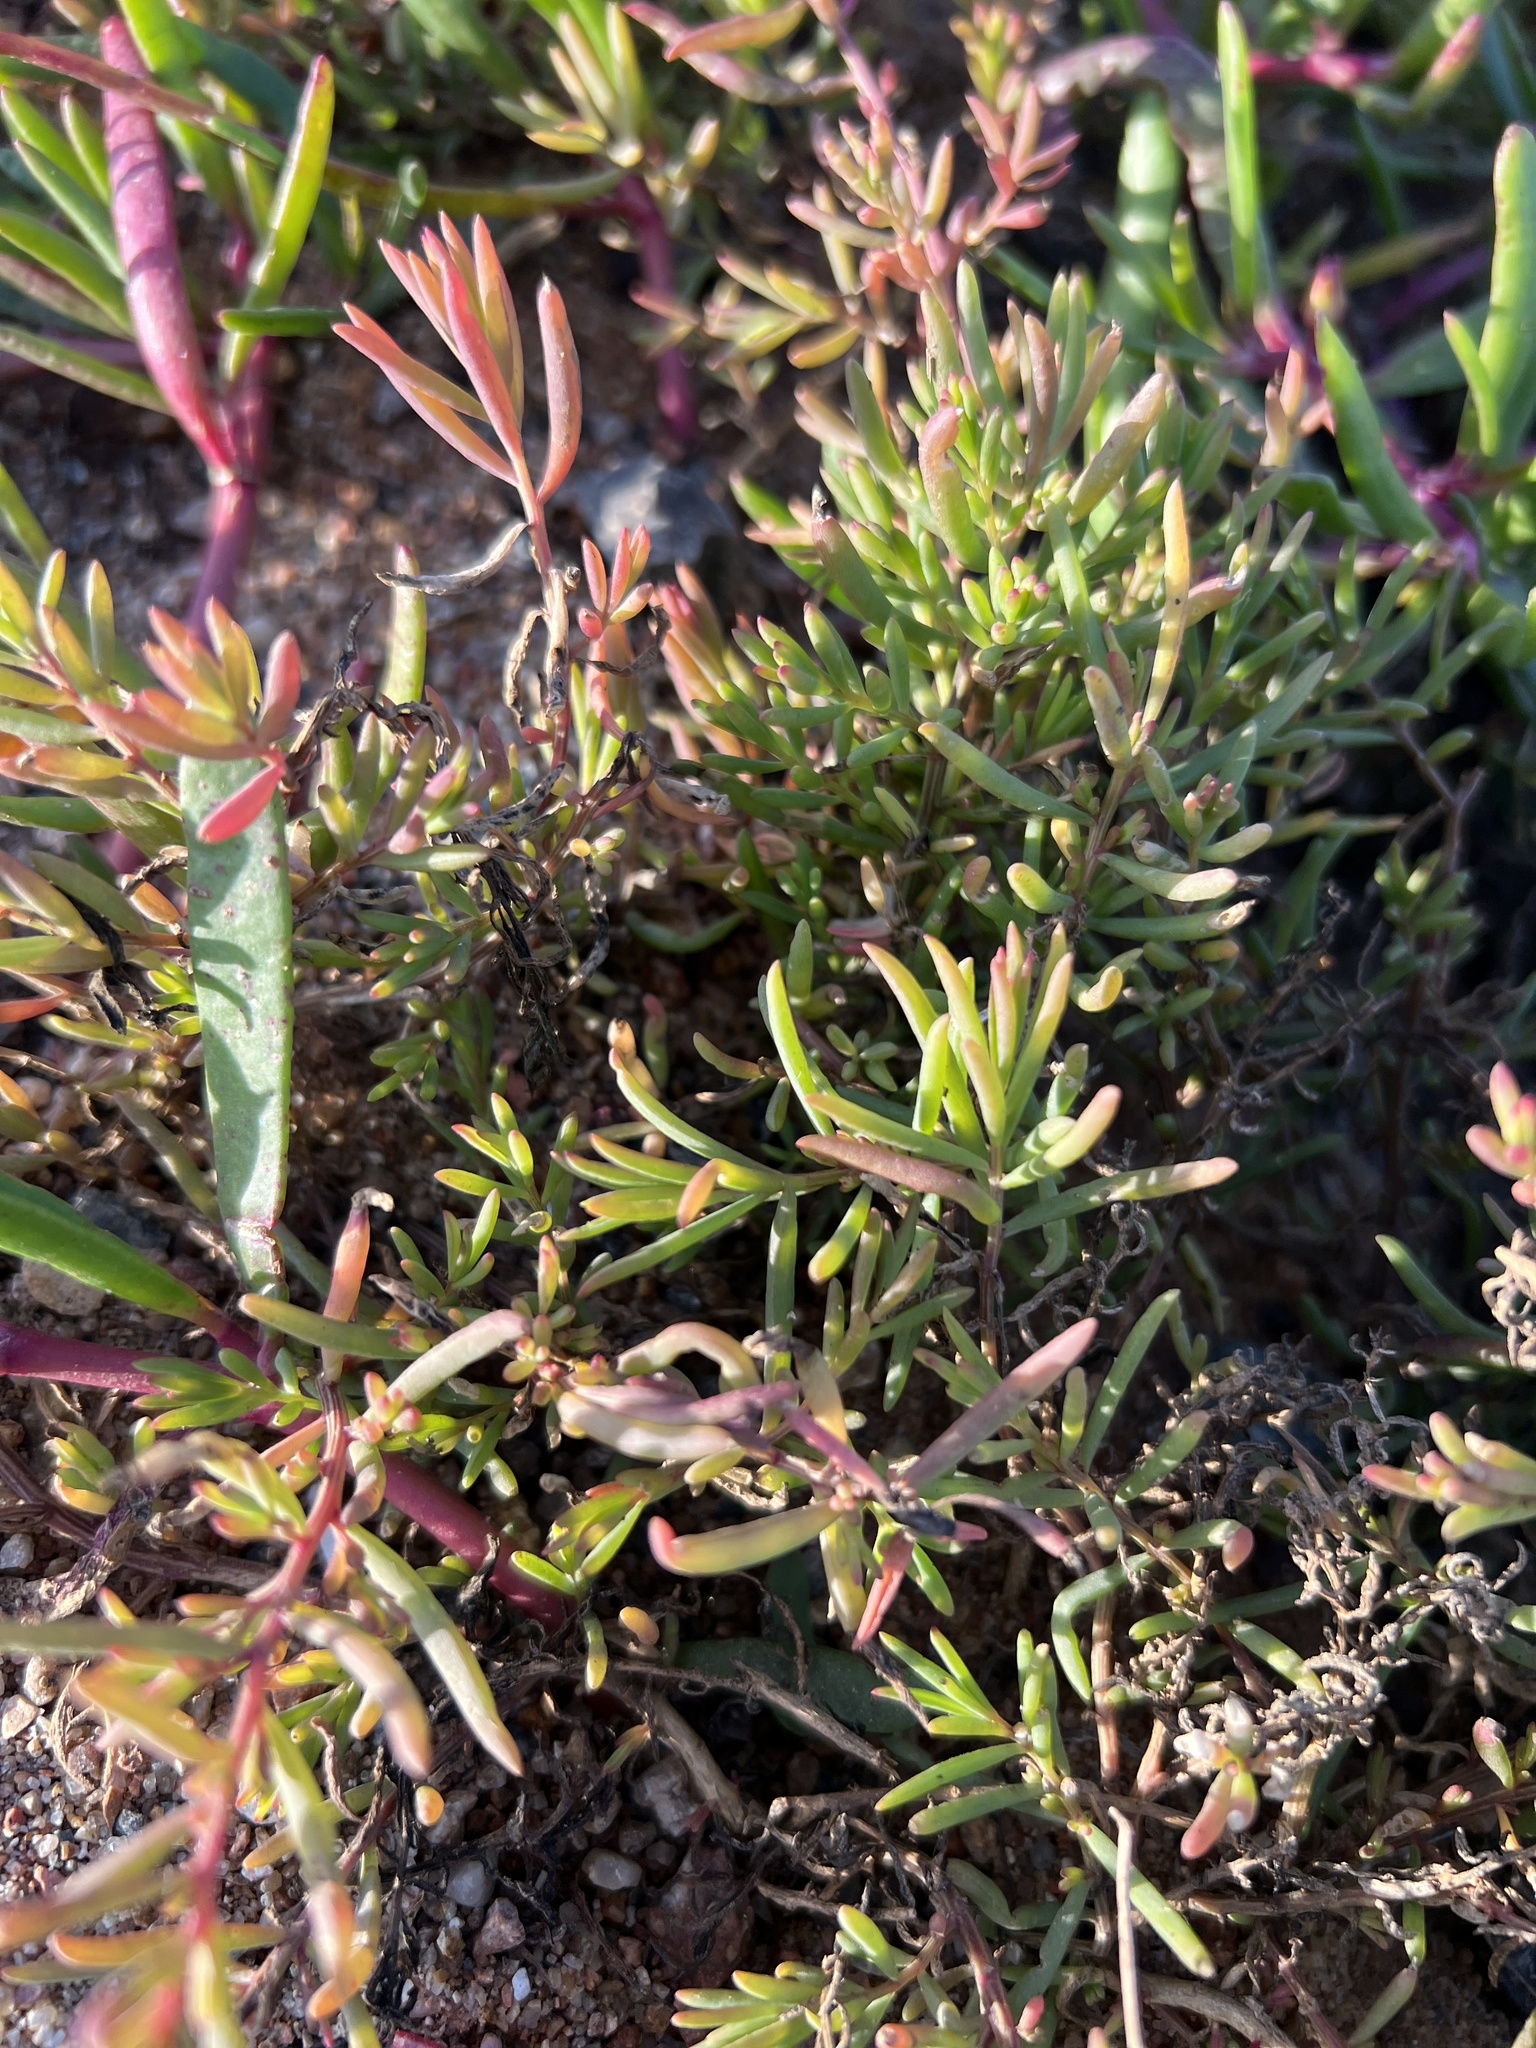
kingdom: Plantae
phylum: Tracheophyta
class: Magnoliopsida
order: Caryophyllales
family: Amaranthaceae
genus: Suaeda
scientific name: Suaeda australis
